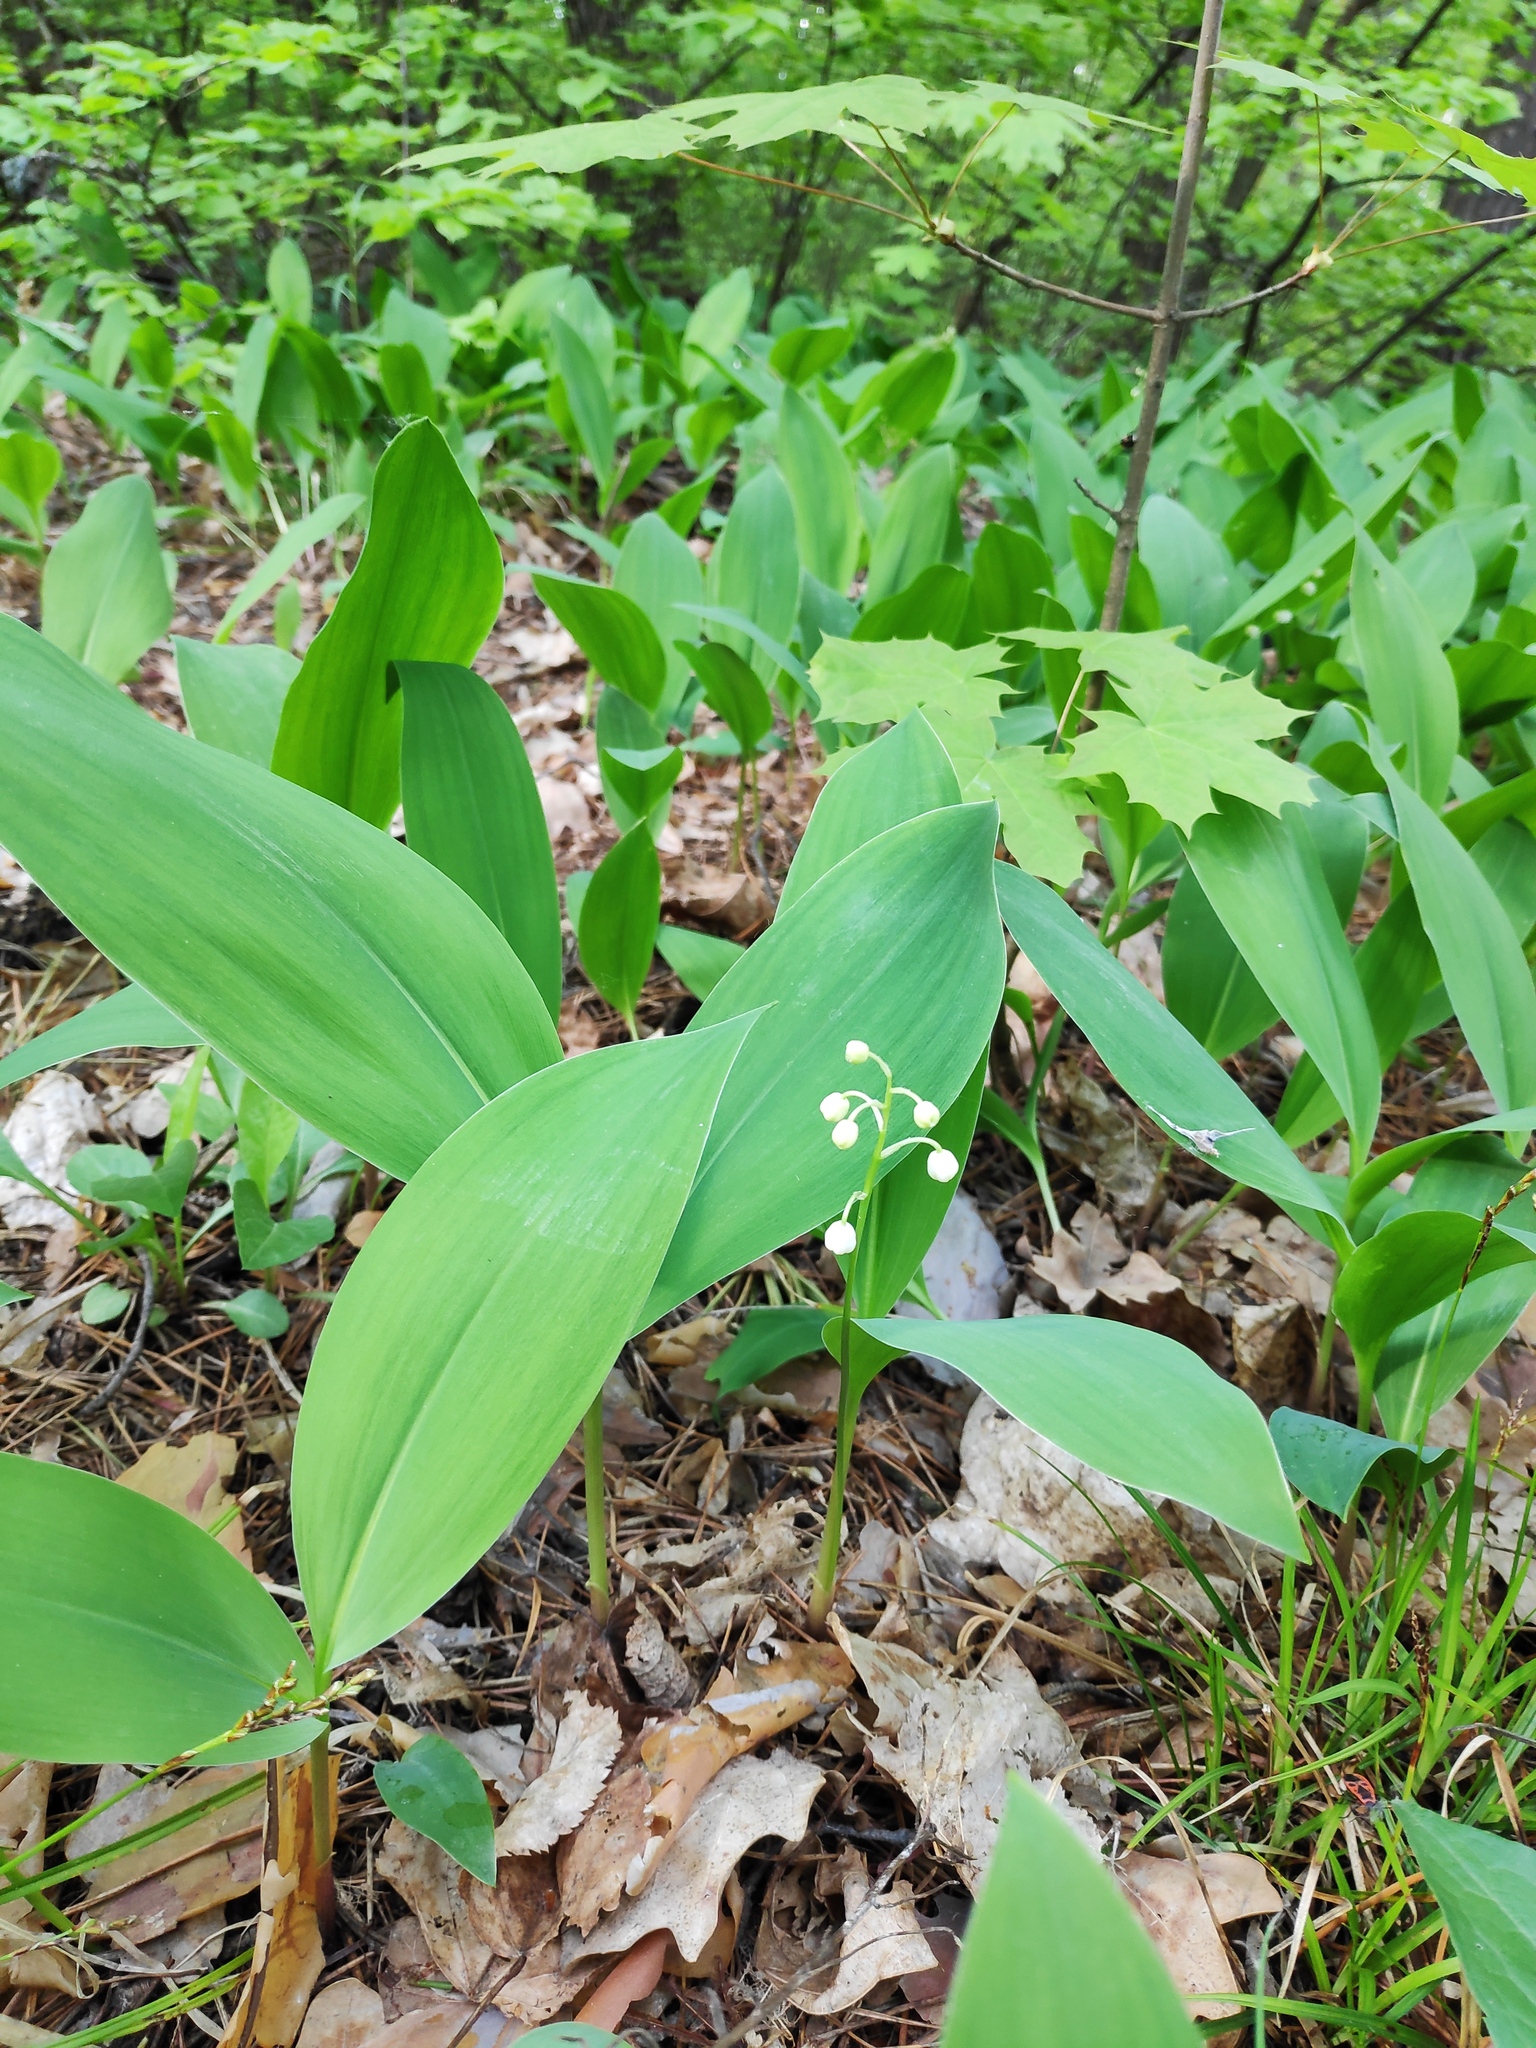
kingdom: Plantae
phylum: Tracheophyta
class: Liliopsida
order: Asparagales
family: Asparagaceae
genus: Convallaria
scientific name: Convallaria majalis
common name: Lily-of-the-valley
